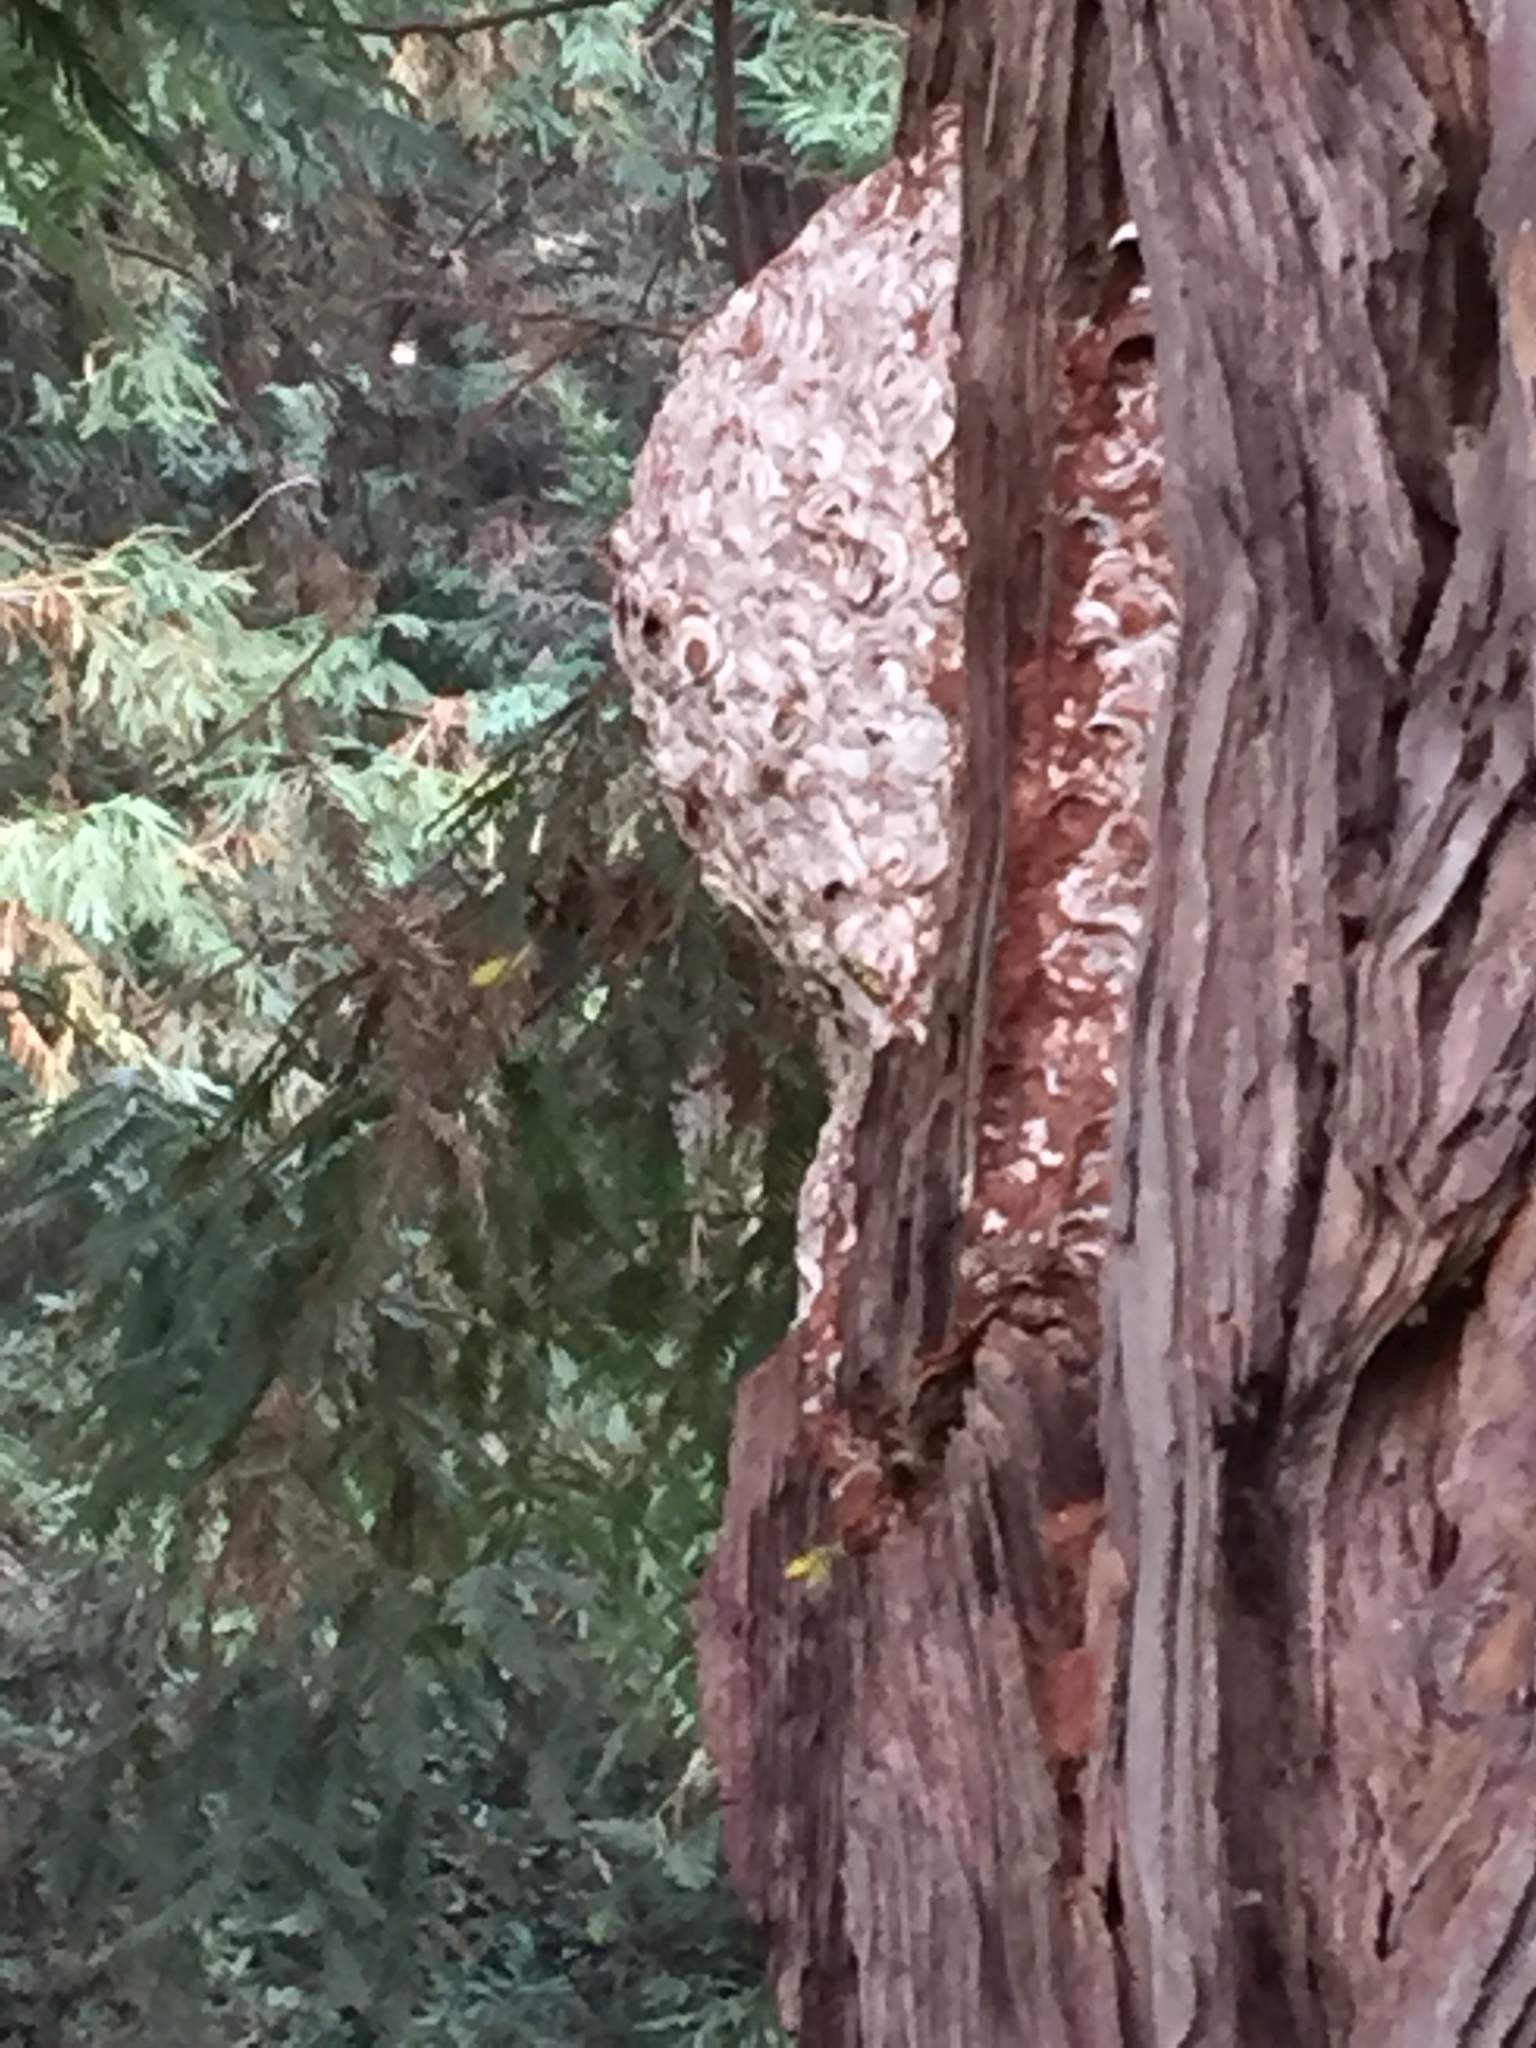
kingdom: Animalia
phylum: Arthropoda
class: Insecta
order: Hymenoptera
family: Vespidae
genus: Vespula
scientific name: Vespula
